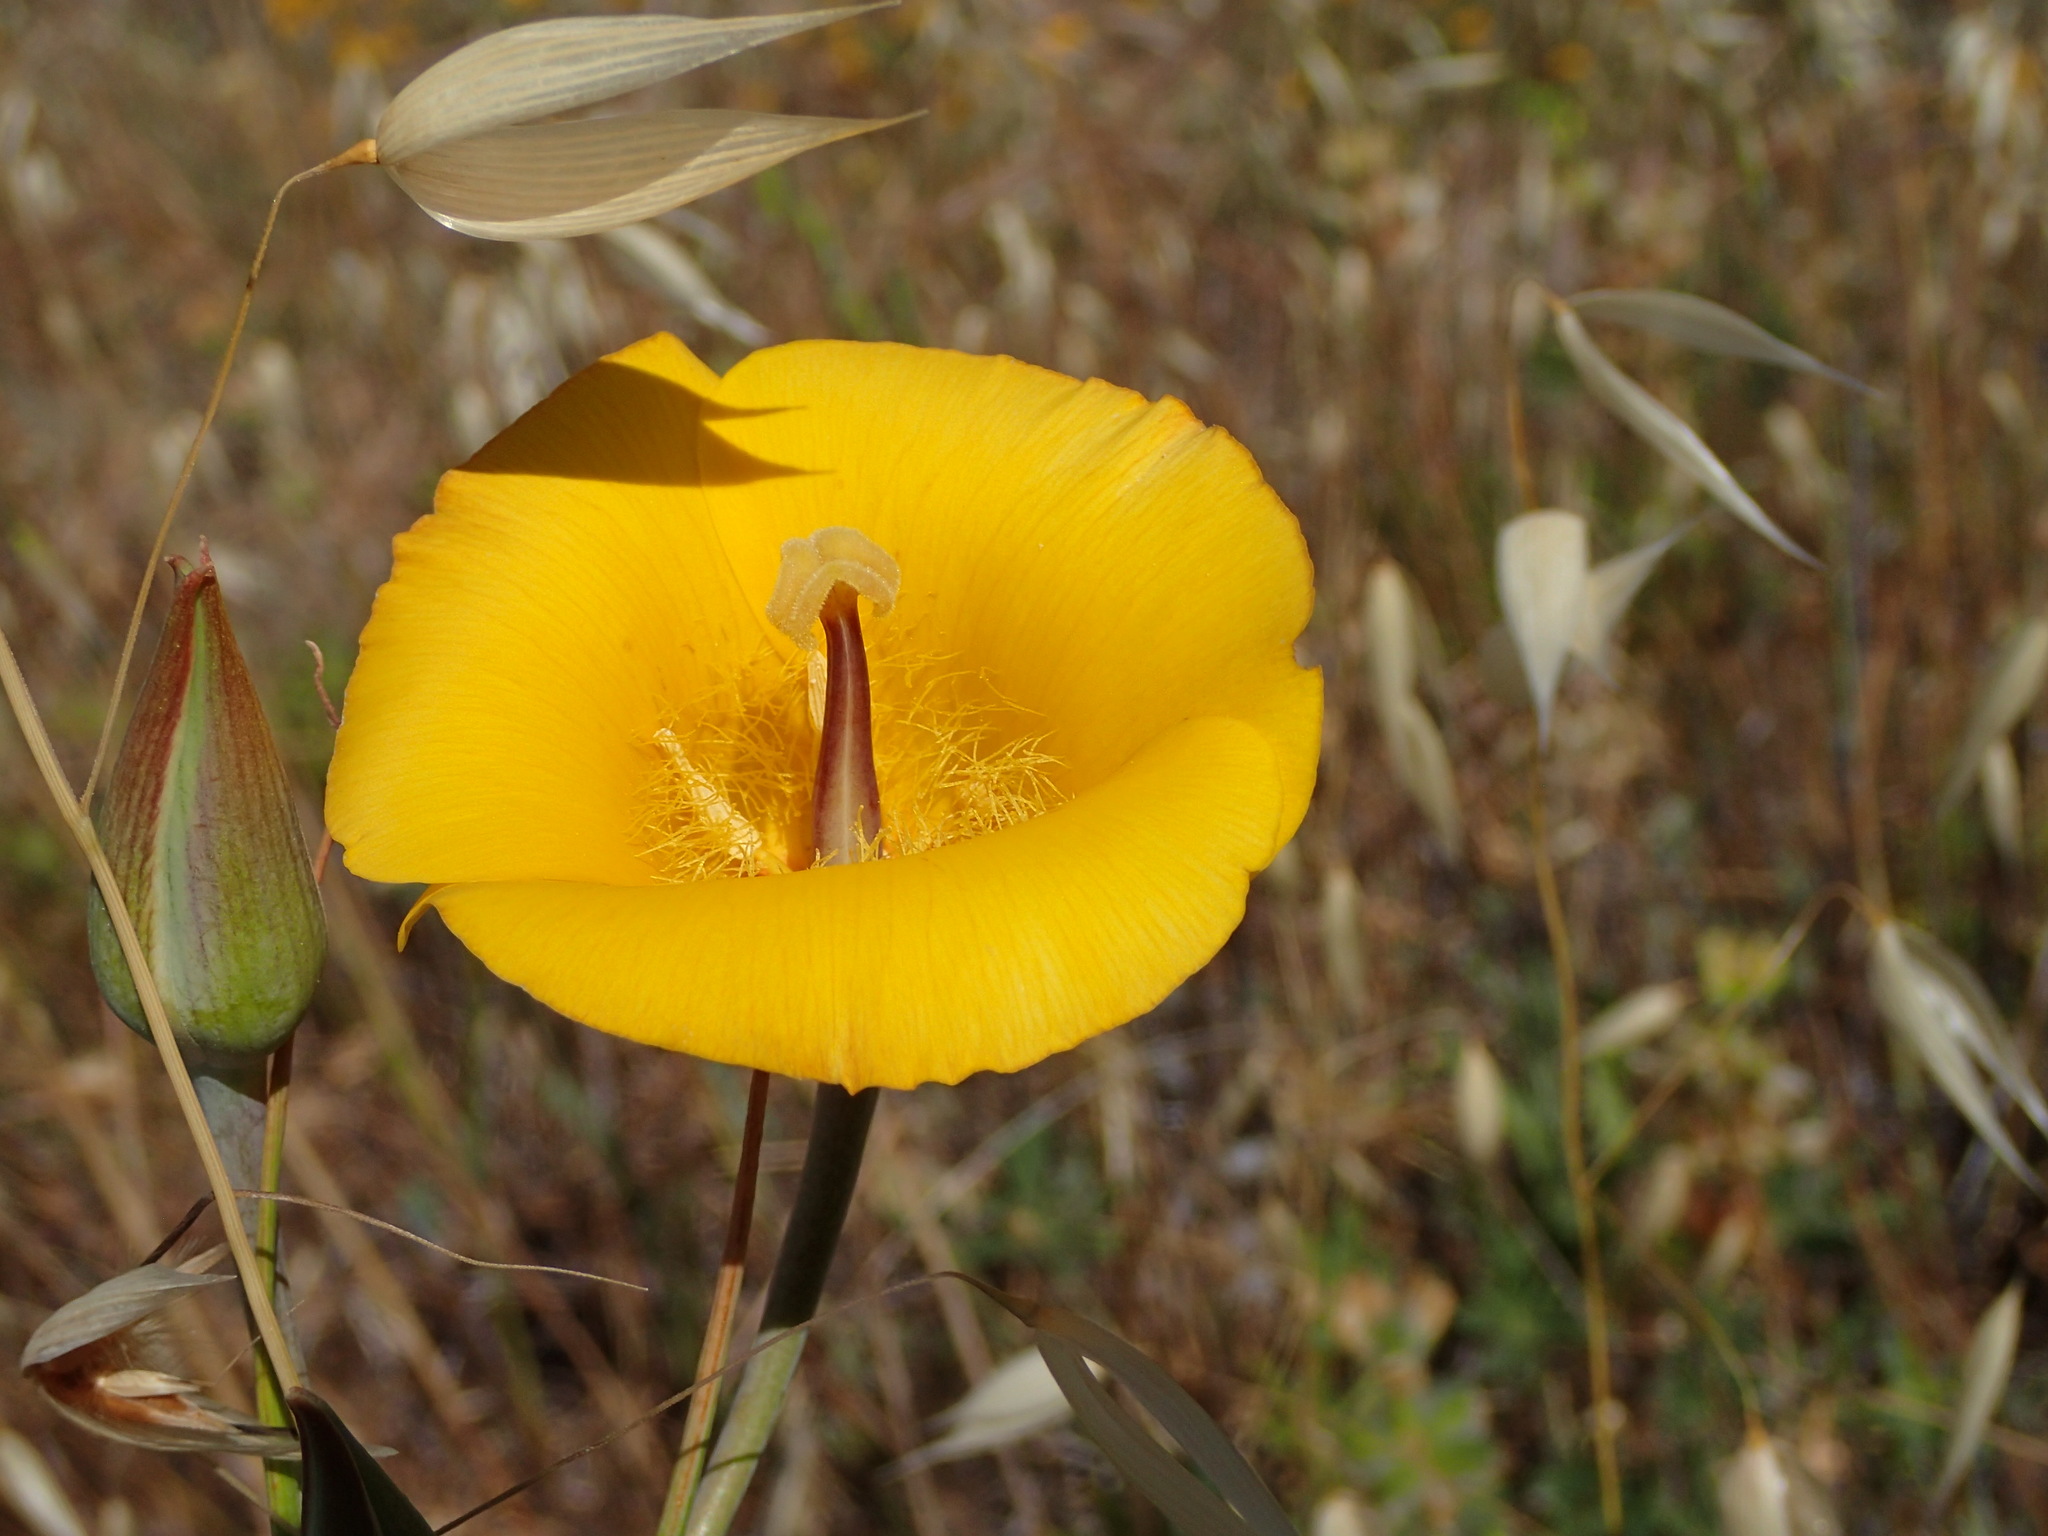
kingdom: Plantae
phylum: Tracheophyta
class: Liliopsida
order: Liliales
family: Liliaceae
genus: Calochortus
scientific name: Calochortus clavatus
